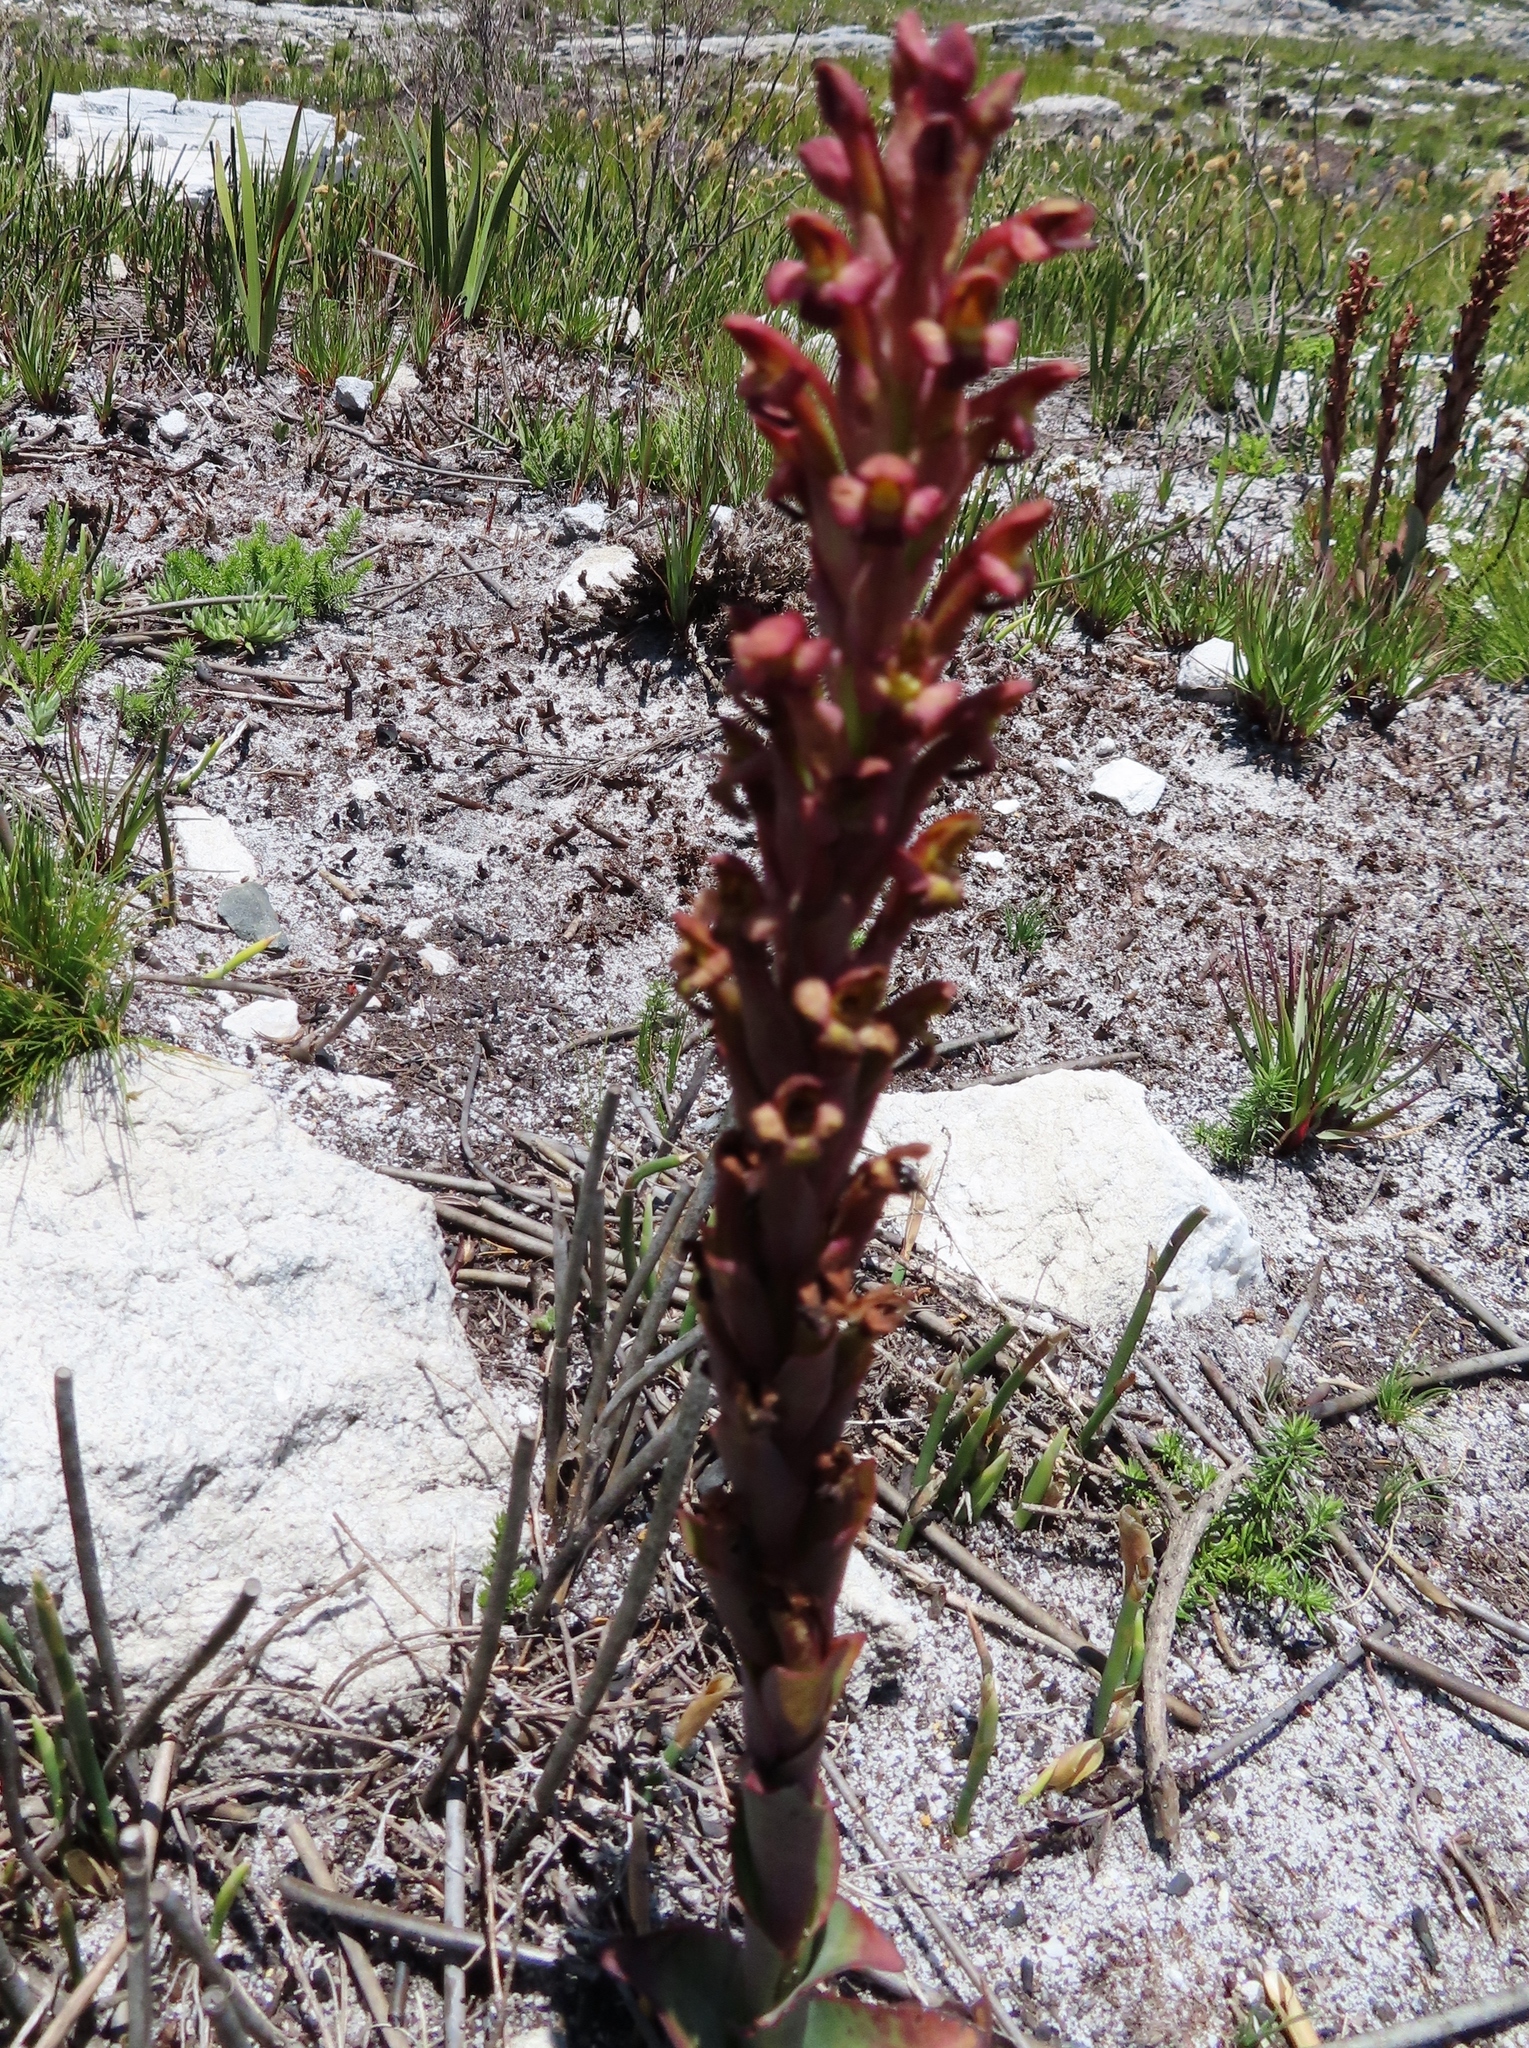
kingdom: Plantae
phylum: Tracheophyta
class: Liliopsida
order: Asparagales
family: Orchidaceae
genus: Disa
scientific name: Disa bolusiana
